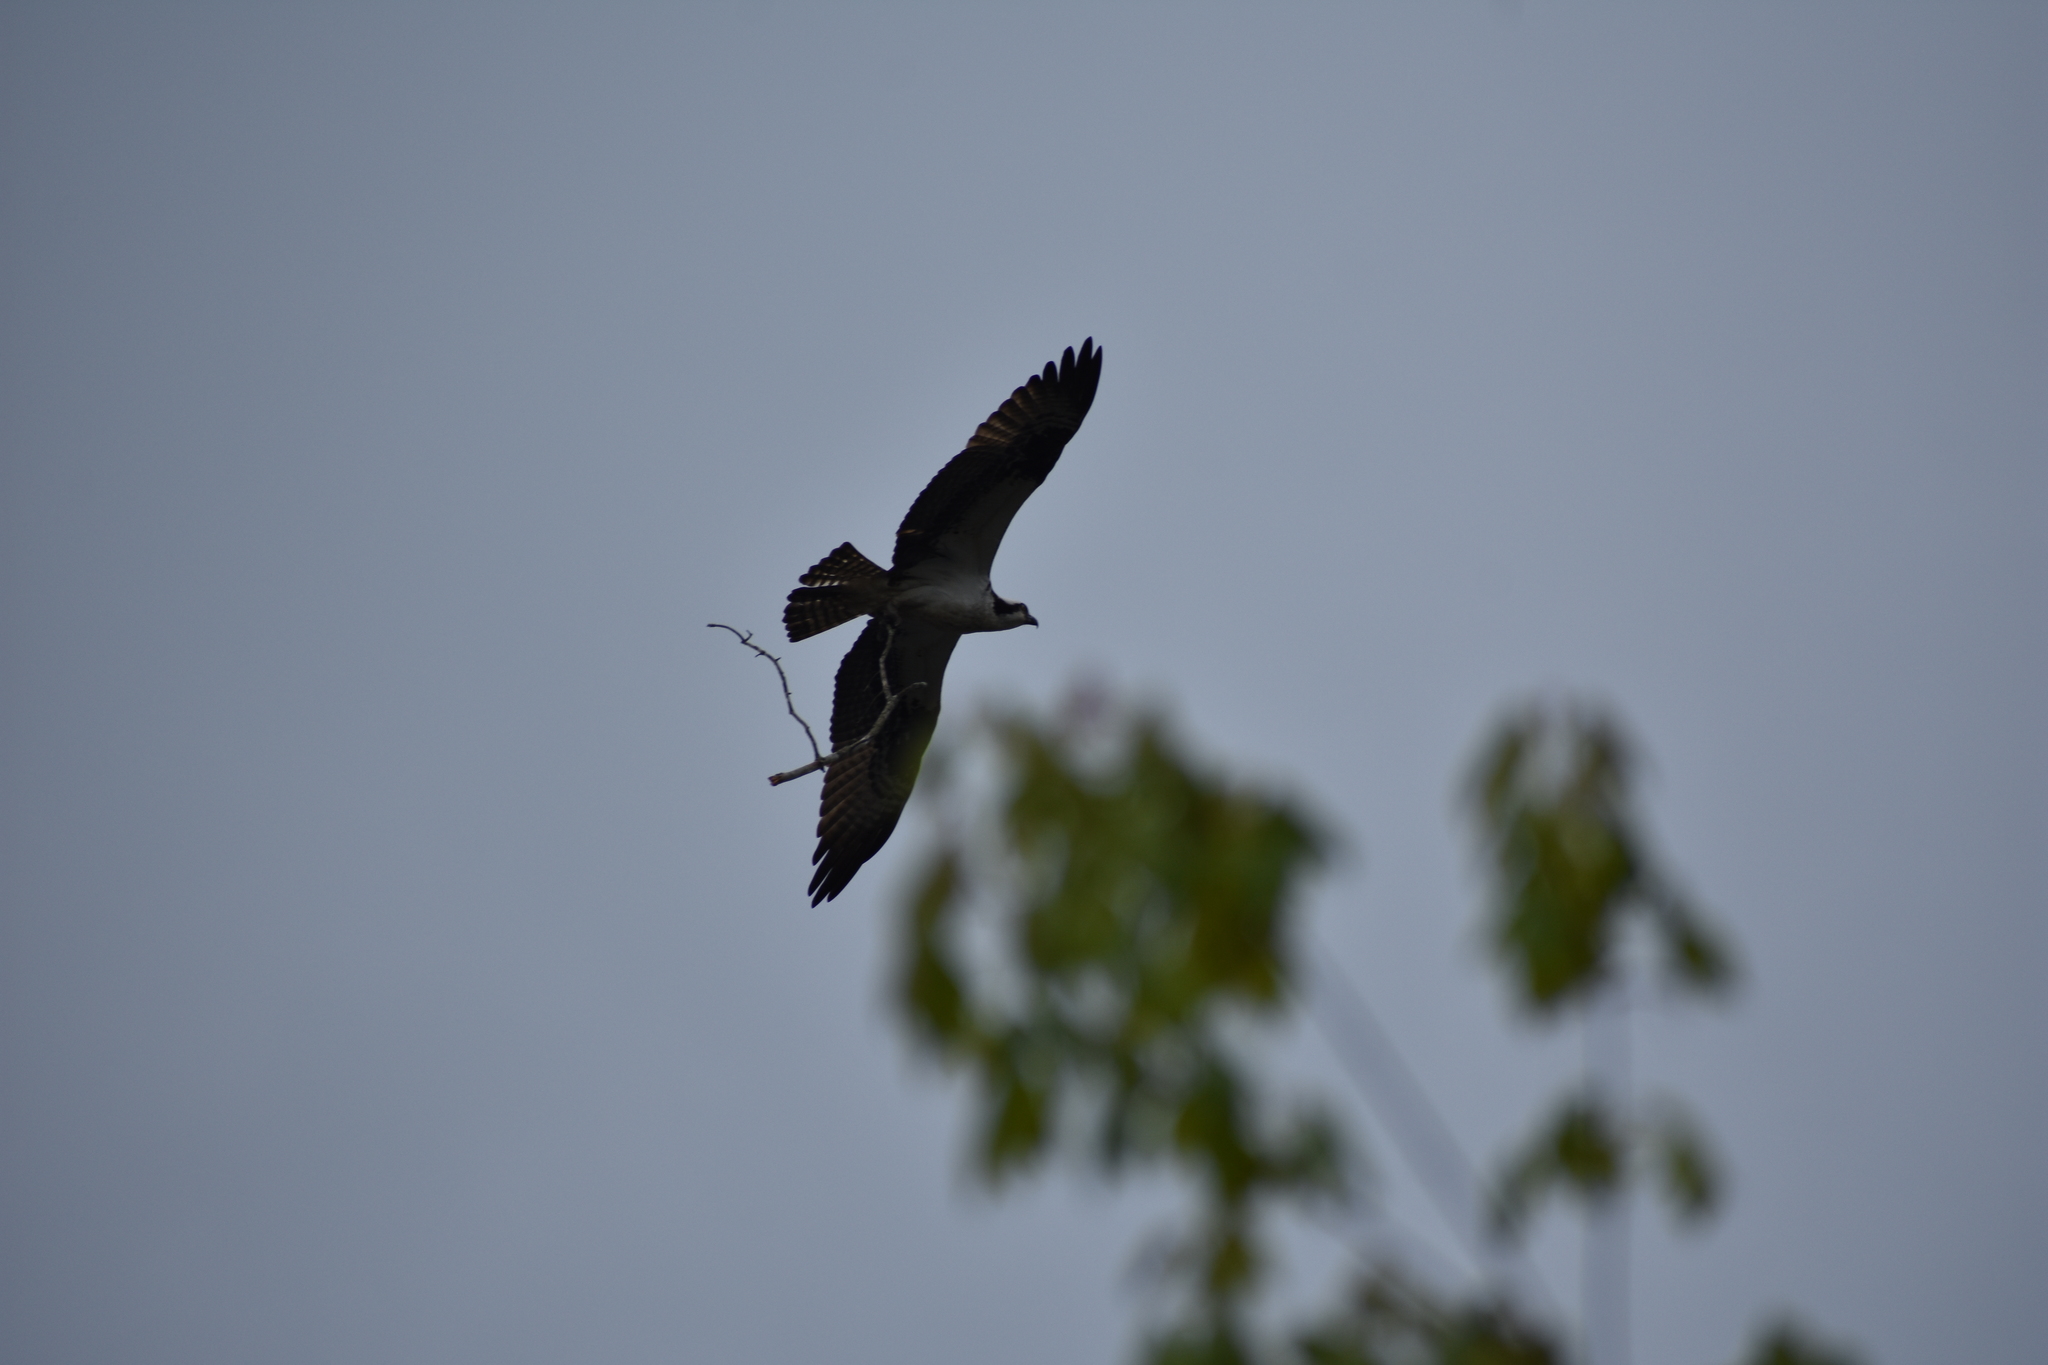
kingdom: Animalia
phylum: Chordata
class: Aves
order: Accipitriformes
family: Pandionidae
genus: Pandion
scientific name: Pandion haliaetus
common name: Osprey
